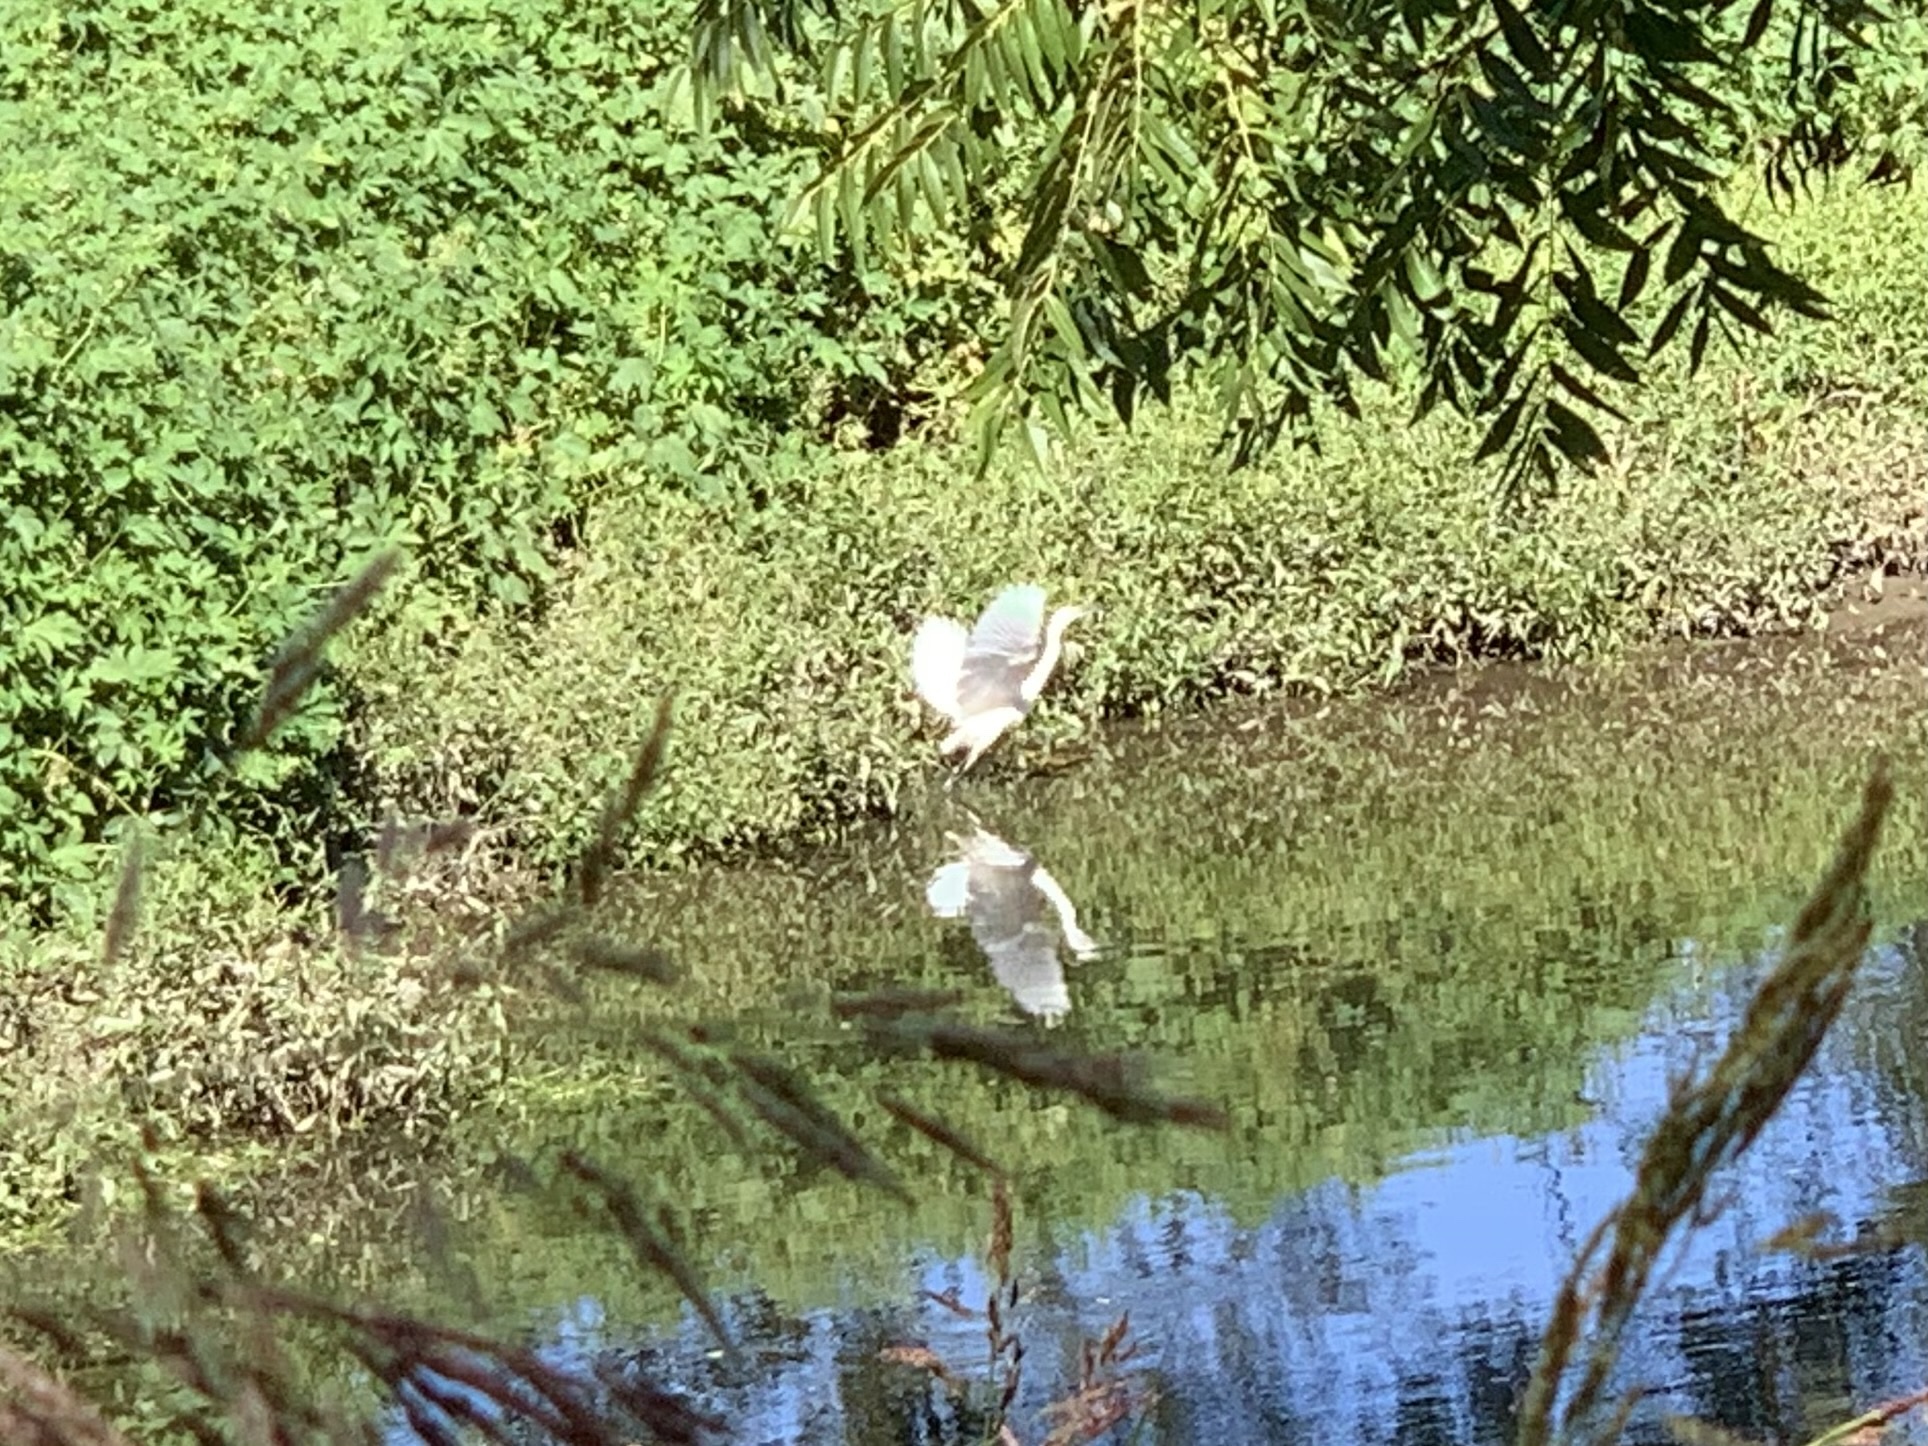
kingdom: Animalia
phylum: Chordata
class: Aves
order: Pelecaniformes
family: Ardeidae
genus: Egretta
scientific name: Egretta garzetta
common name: Little egret
